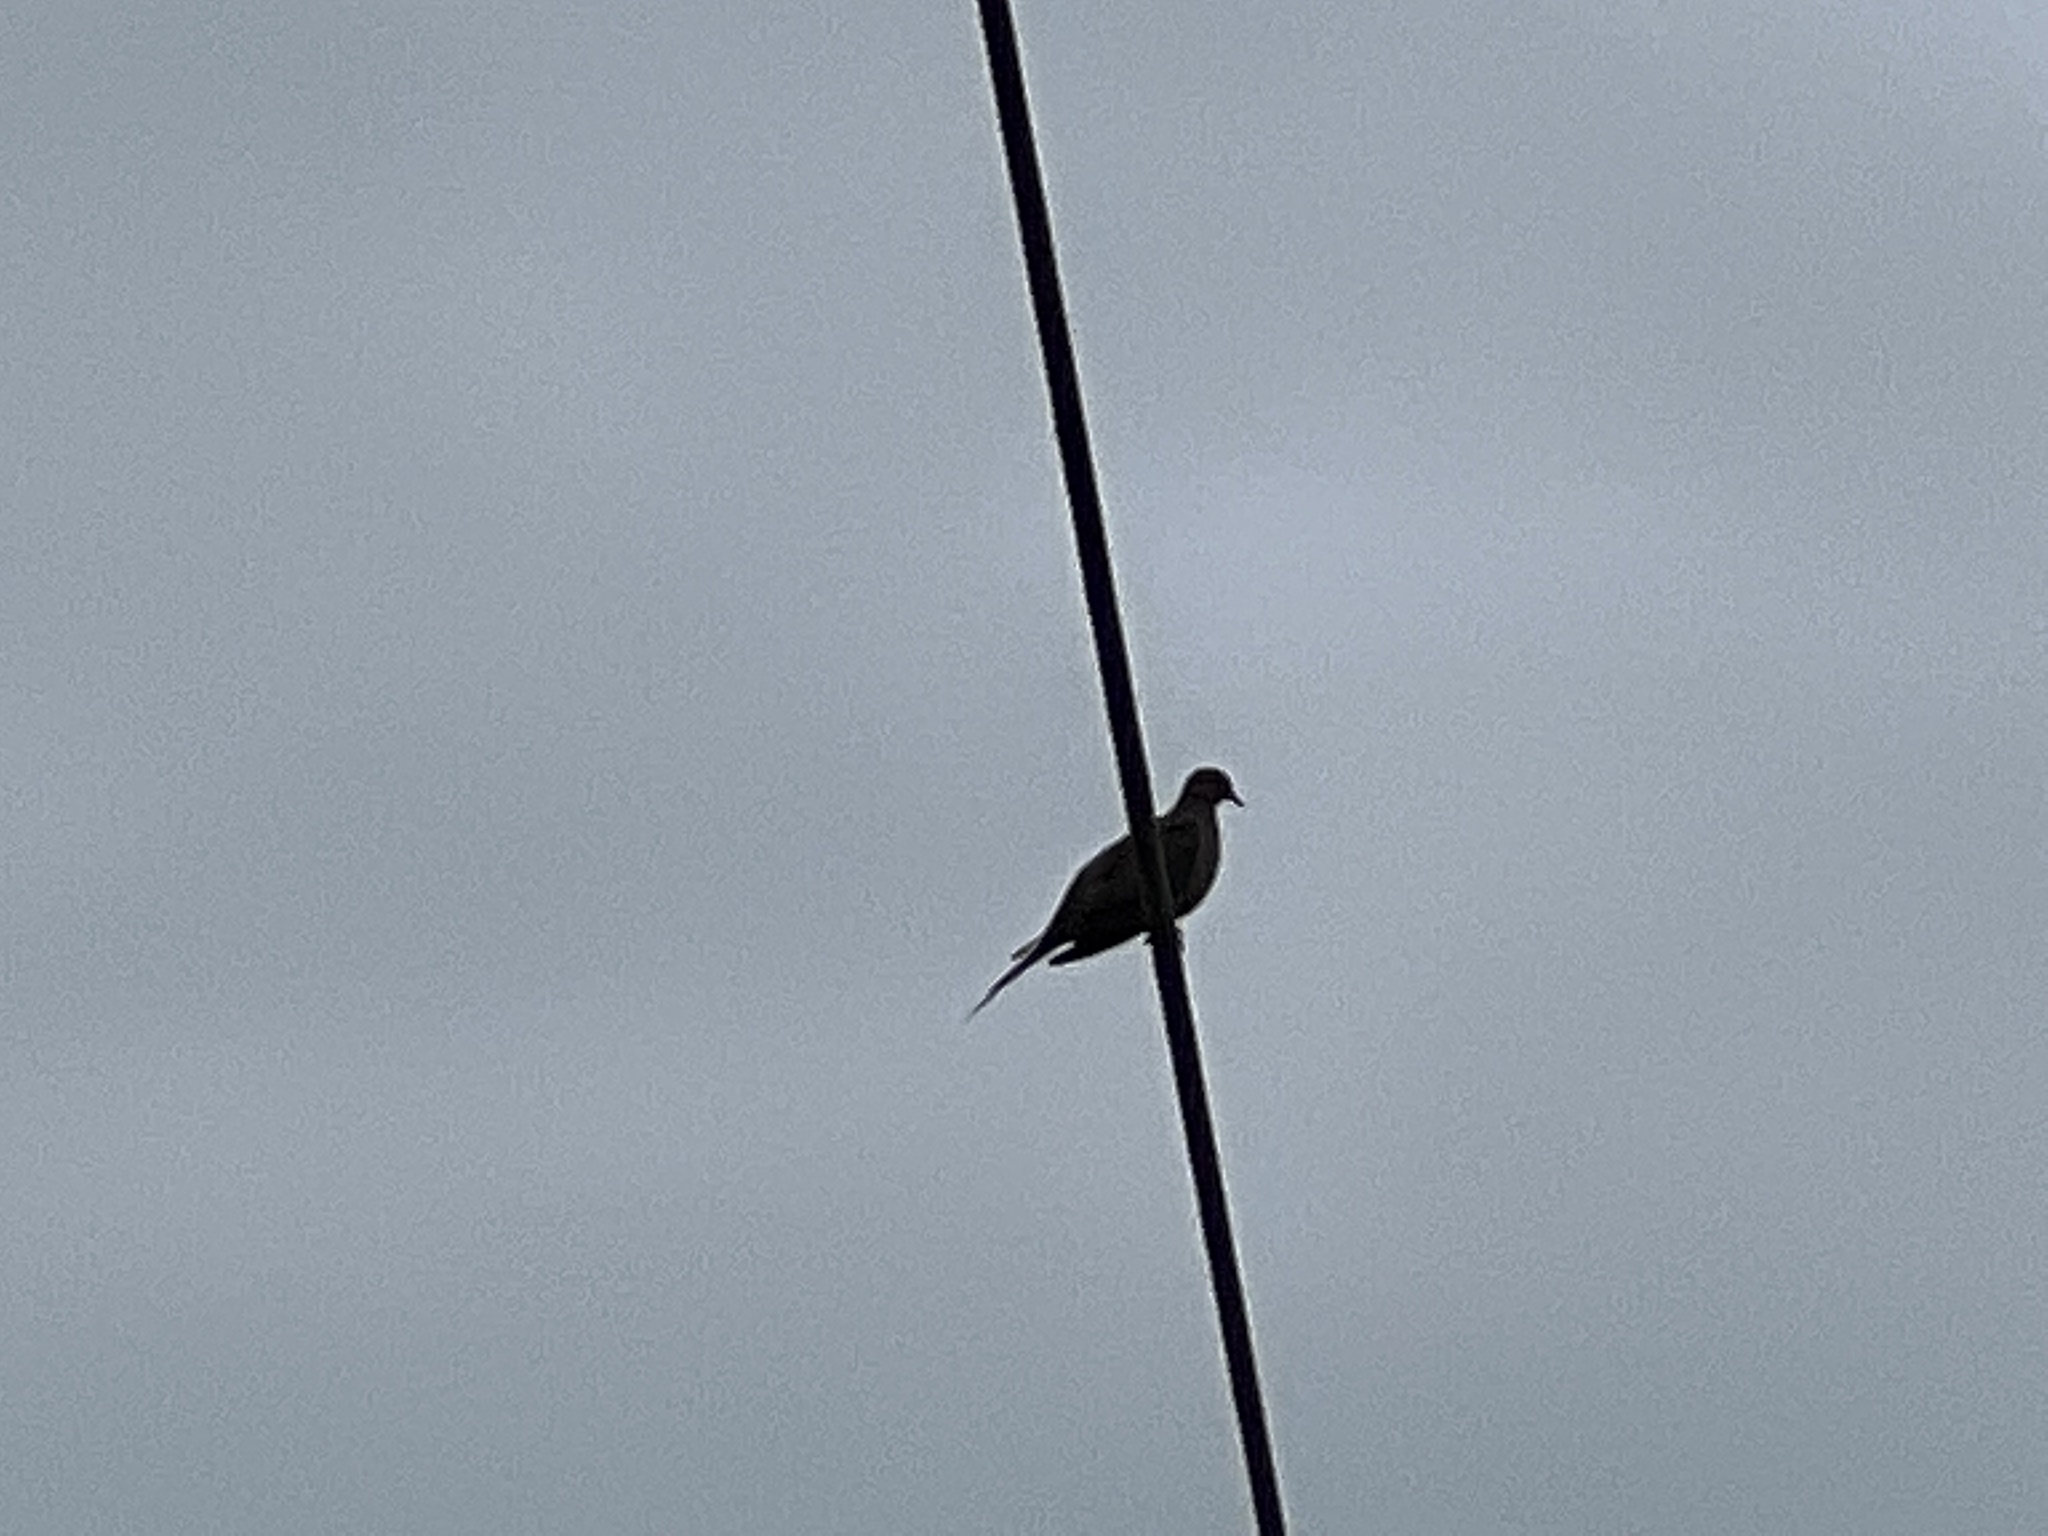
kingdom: Animalia
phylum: Chordata
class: Aves
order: Columbiformes
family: Columbidae
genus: Zenaida
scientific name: Zenaida macroura
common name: Mourning dove
